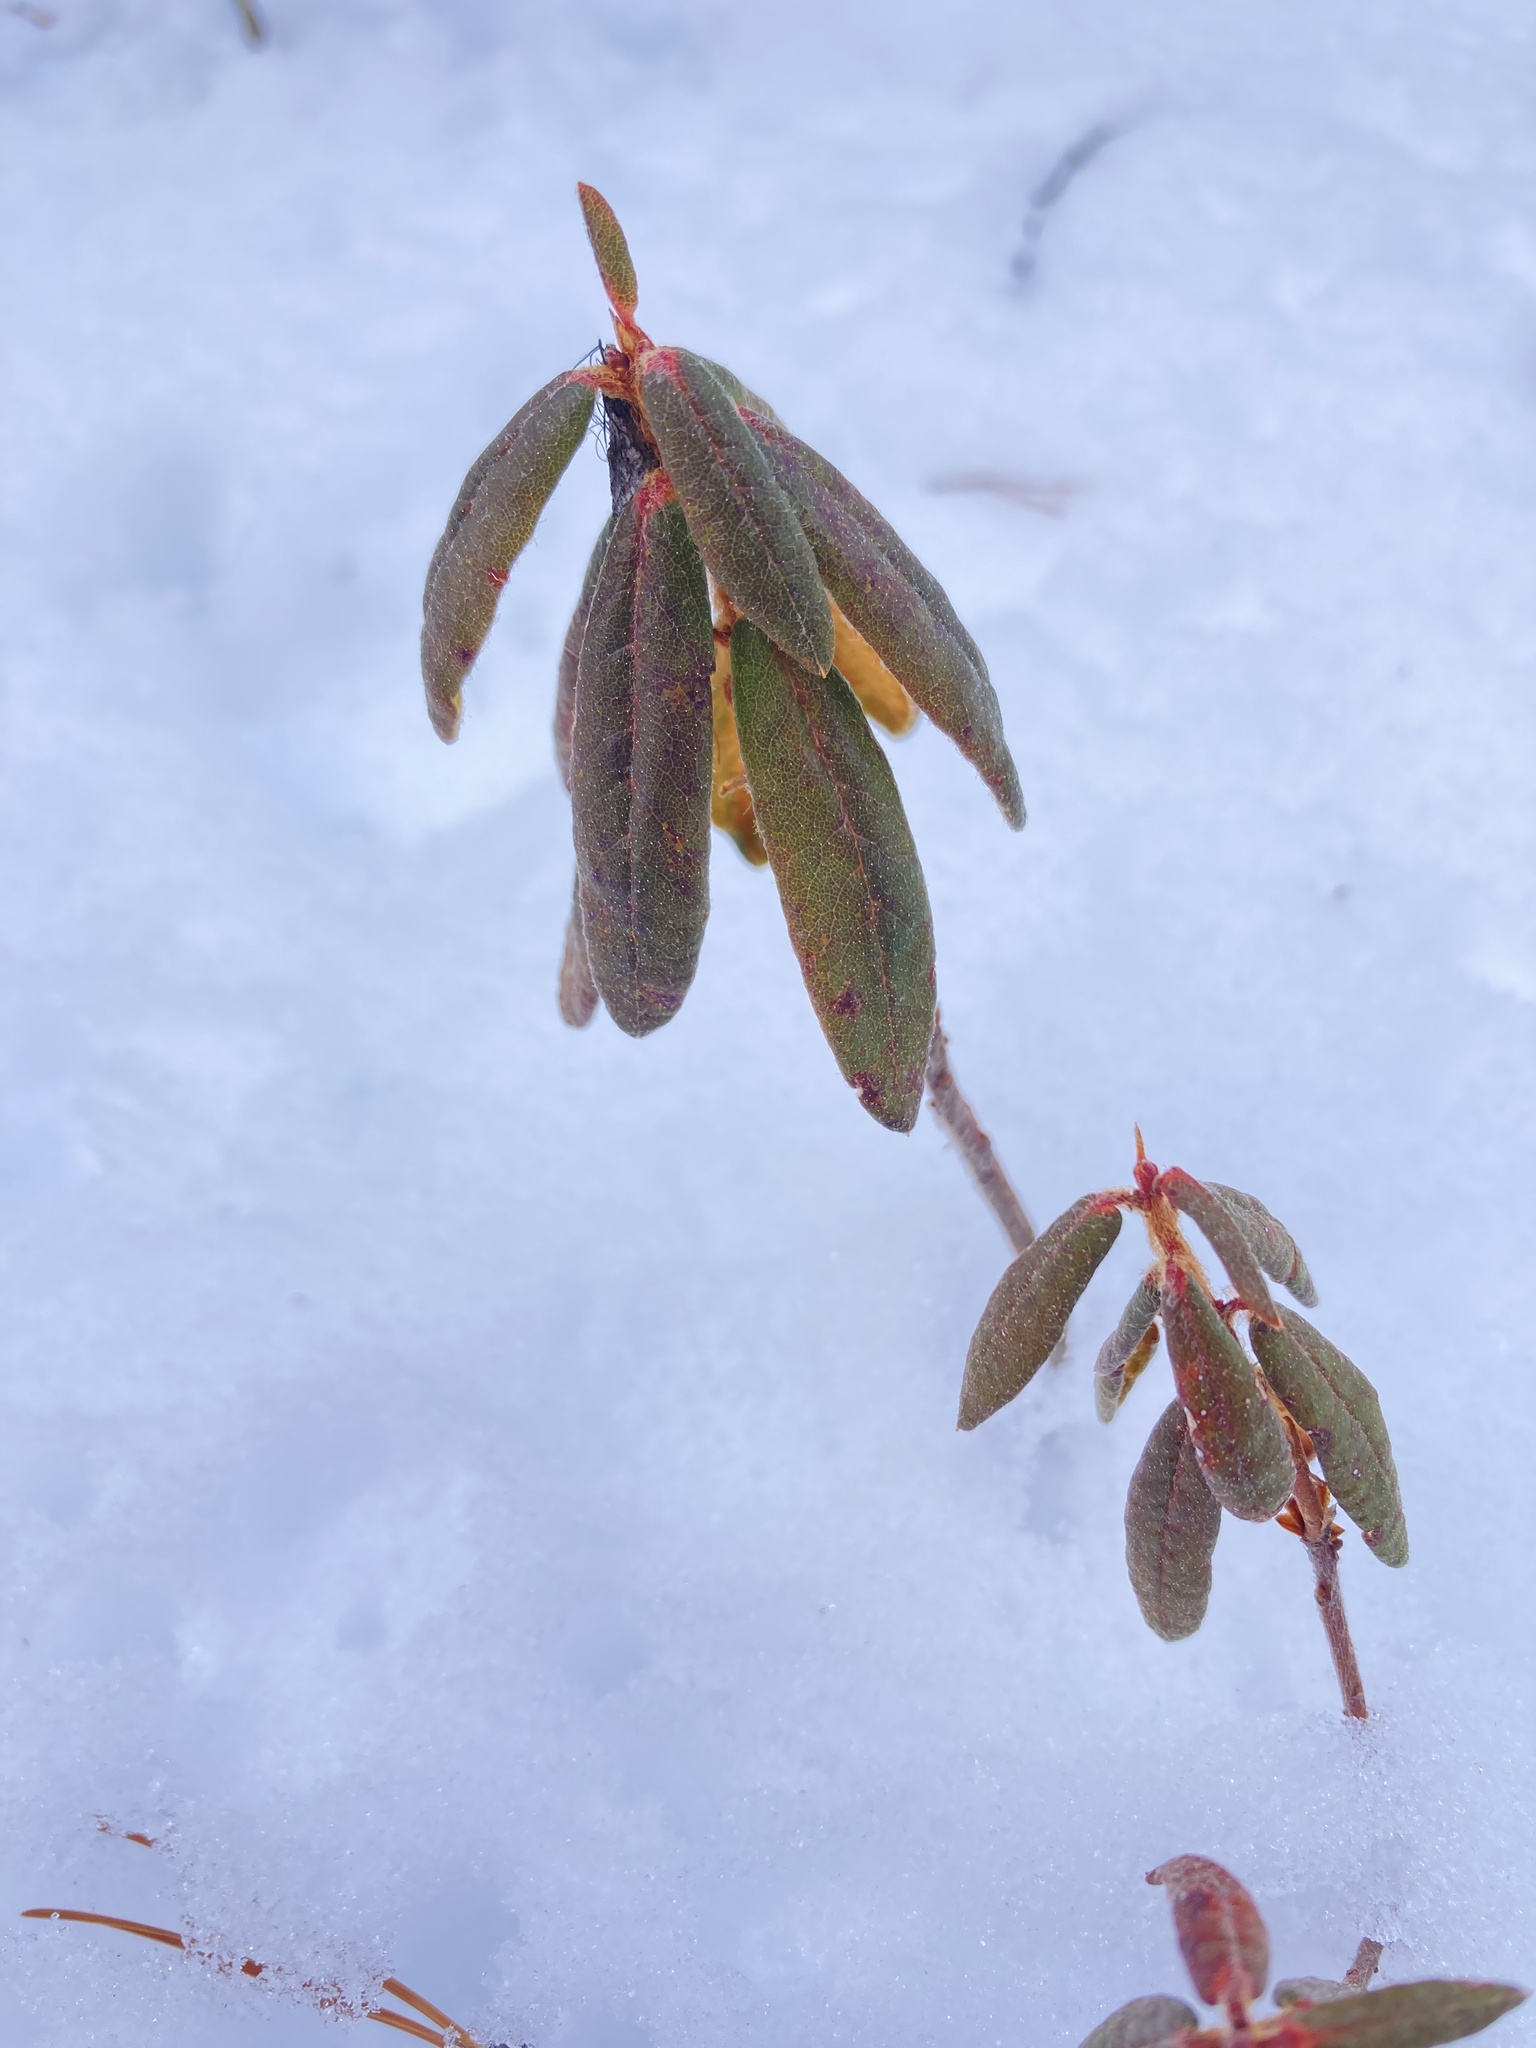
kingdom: Plantae
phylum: Tracheophyta
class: Magnoliopsida
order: Ericales
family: Ericaceae
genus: Rhododendron
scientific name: Rhododendron groenlandicum
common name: Bog labrador tea
